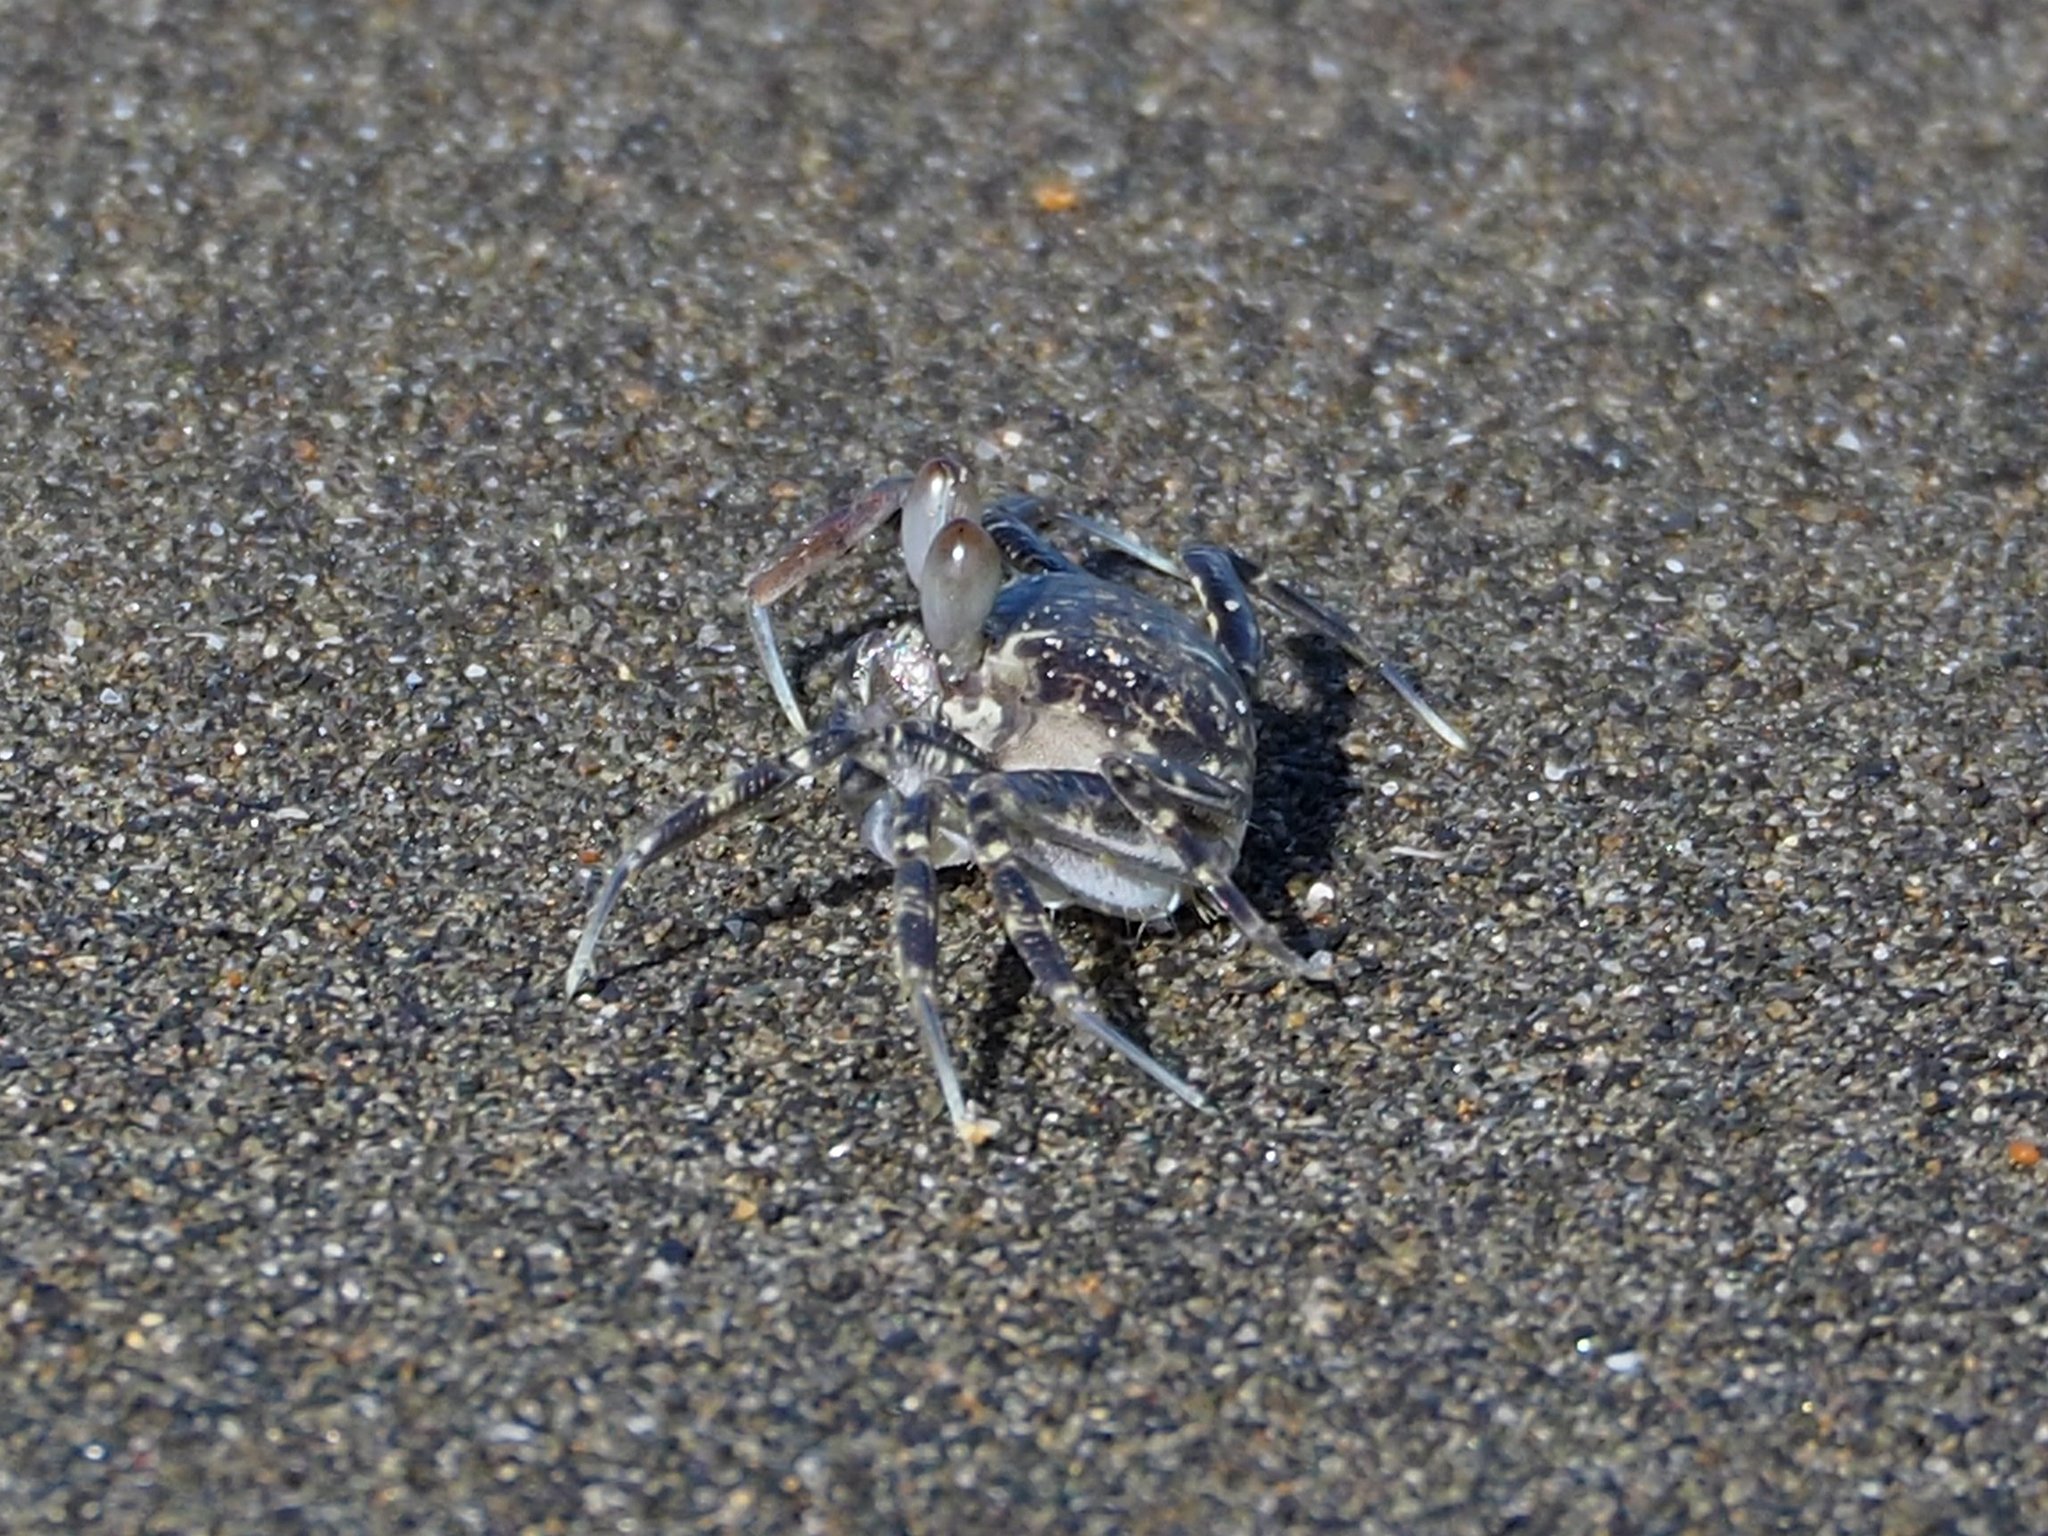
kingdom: Animalia
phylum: Arthropoda
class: Malacostraca
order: Decapoda
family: Ocypodidae
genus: Ocypode
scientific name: Ocypode ceratophthalmus
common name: Indo-pacific ghost crab
